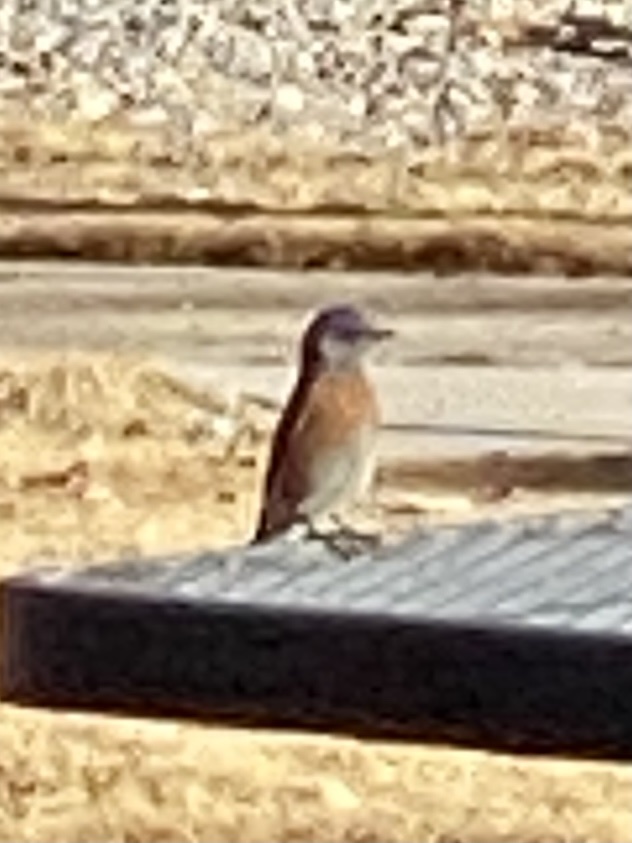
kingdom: Animalia
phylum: Chordata
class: Aves
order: Passeriformes
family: Turdidae
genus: Sialia
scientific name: Sialia mexicana
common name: Western bluebird
